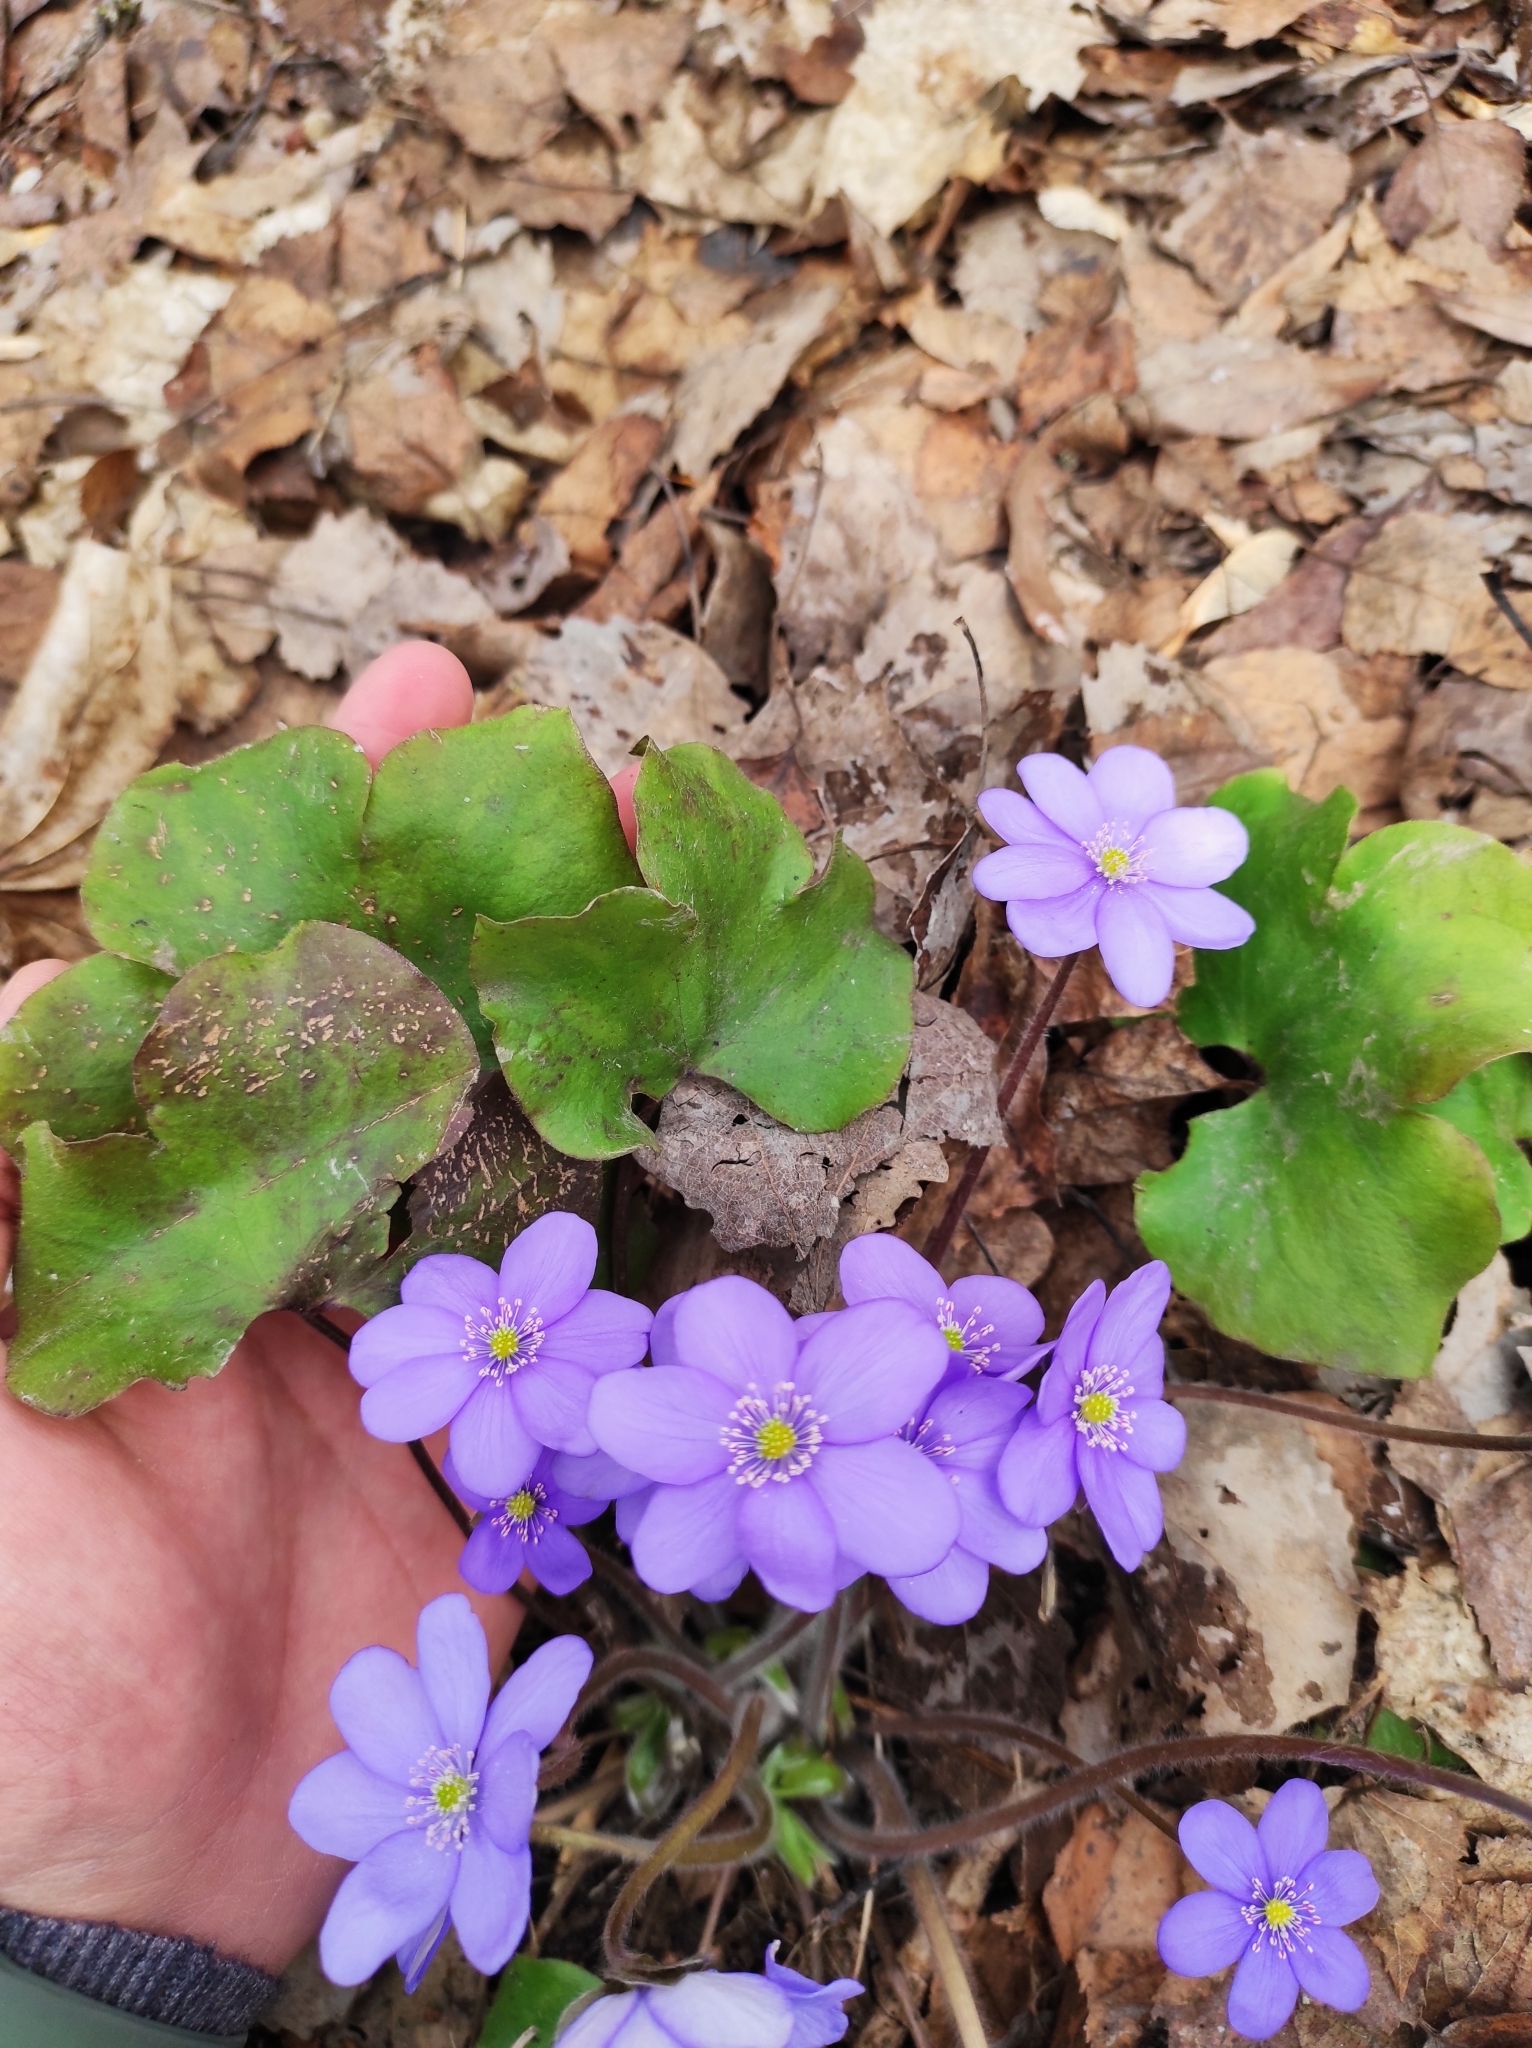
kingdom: Plantae
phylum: Tracheophyta
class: Magnoliopsida
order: Ranunculales
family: Ranunculaceae
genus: Hepatica
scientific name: Hepatica nobilis
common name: Liverleaf
